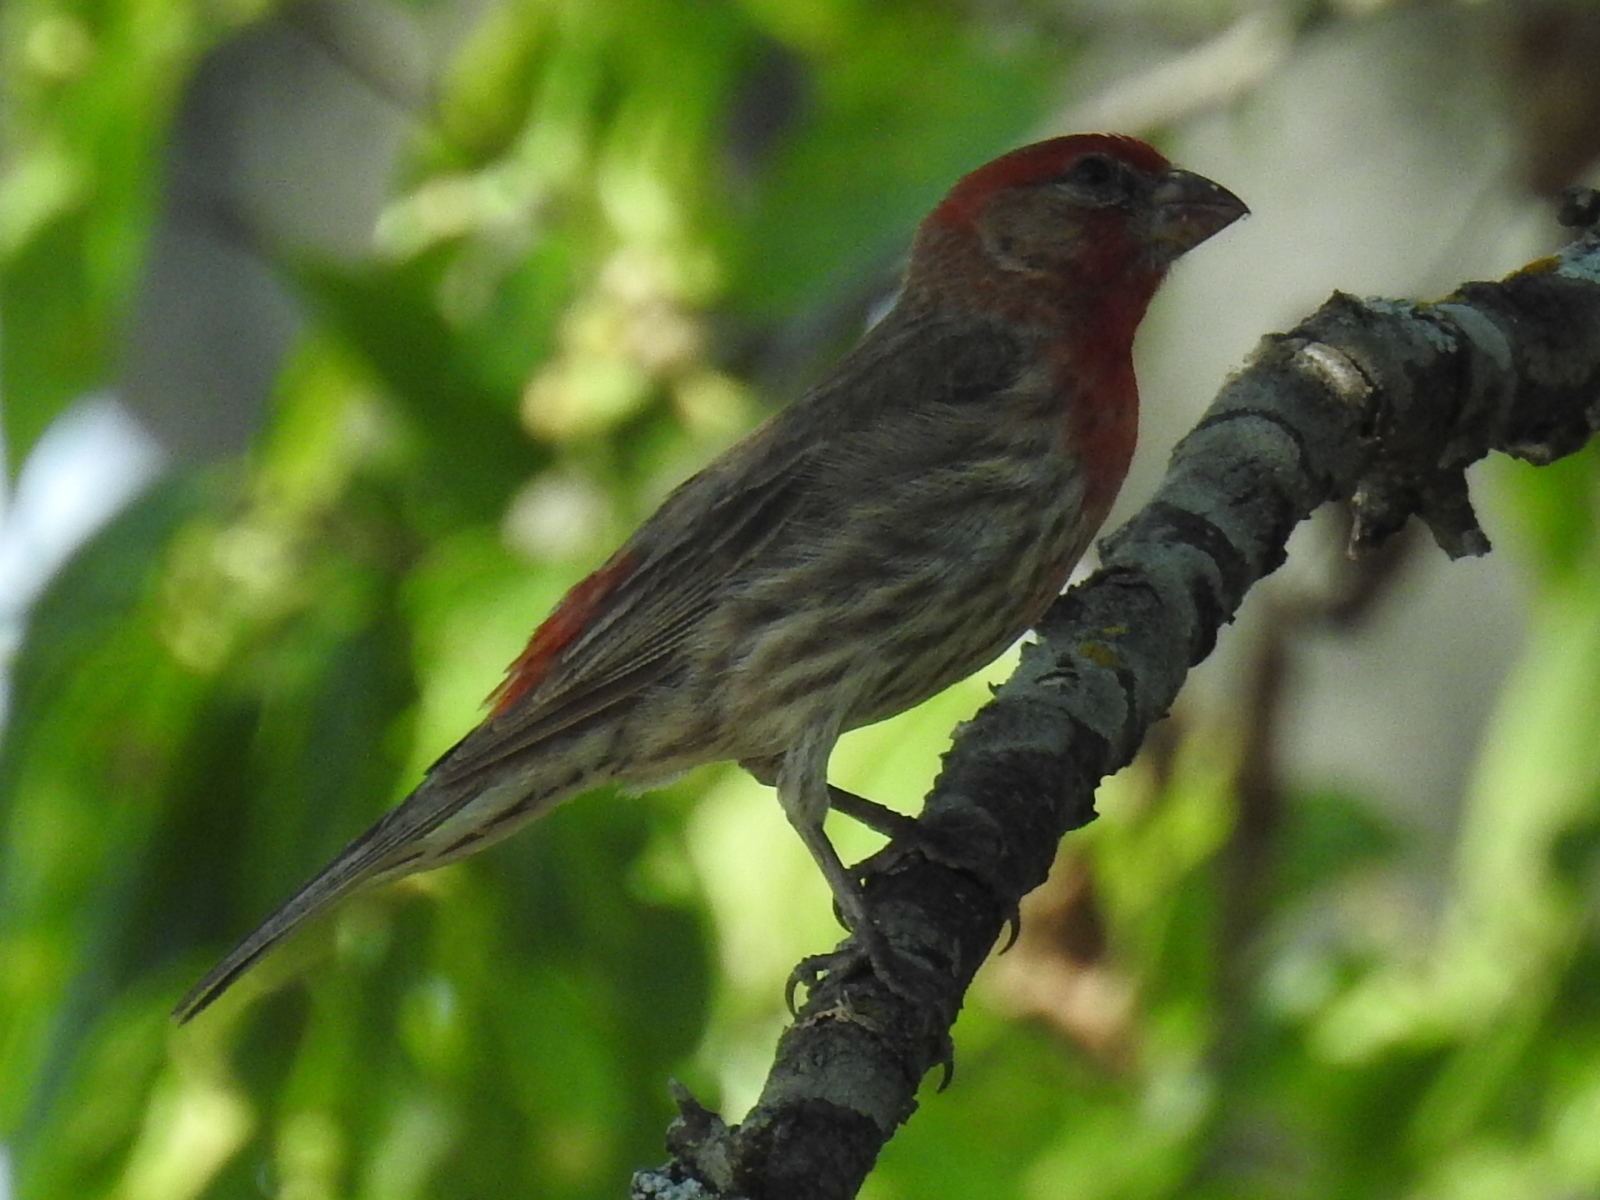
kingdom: Animalia
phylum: Chordata
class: Aves
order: Passeriformes
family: Fringillidae
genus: Haemorhous
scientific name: Haemorhous mexicanus
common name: House finch
